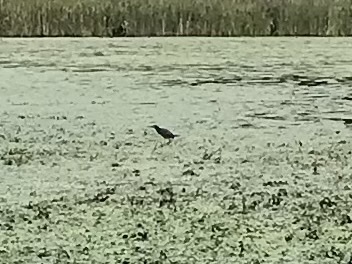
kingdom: Animalia
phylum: Chordata
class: Aves
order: Pelecaniformes
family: Ardeidae
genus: Butorides
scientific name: Butorides virescens
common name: Green heron
